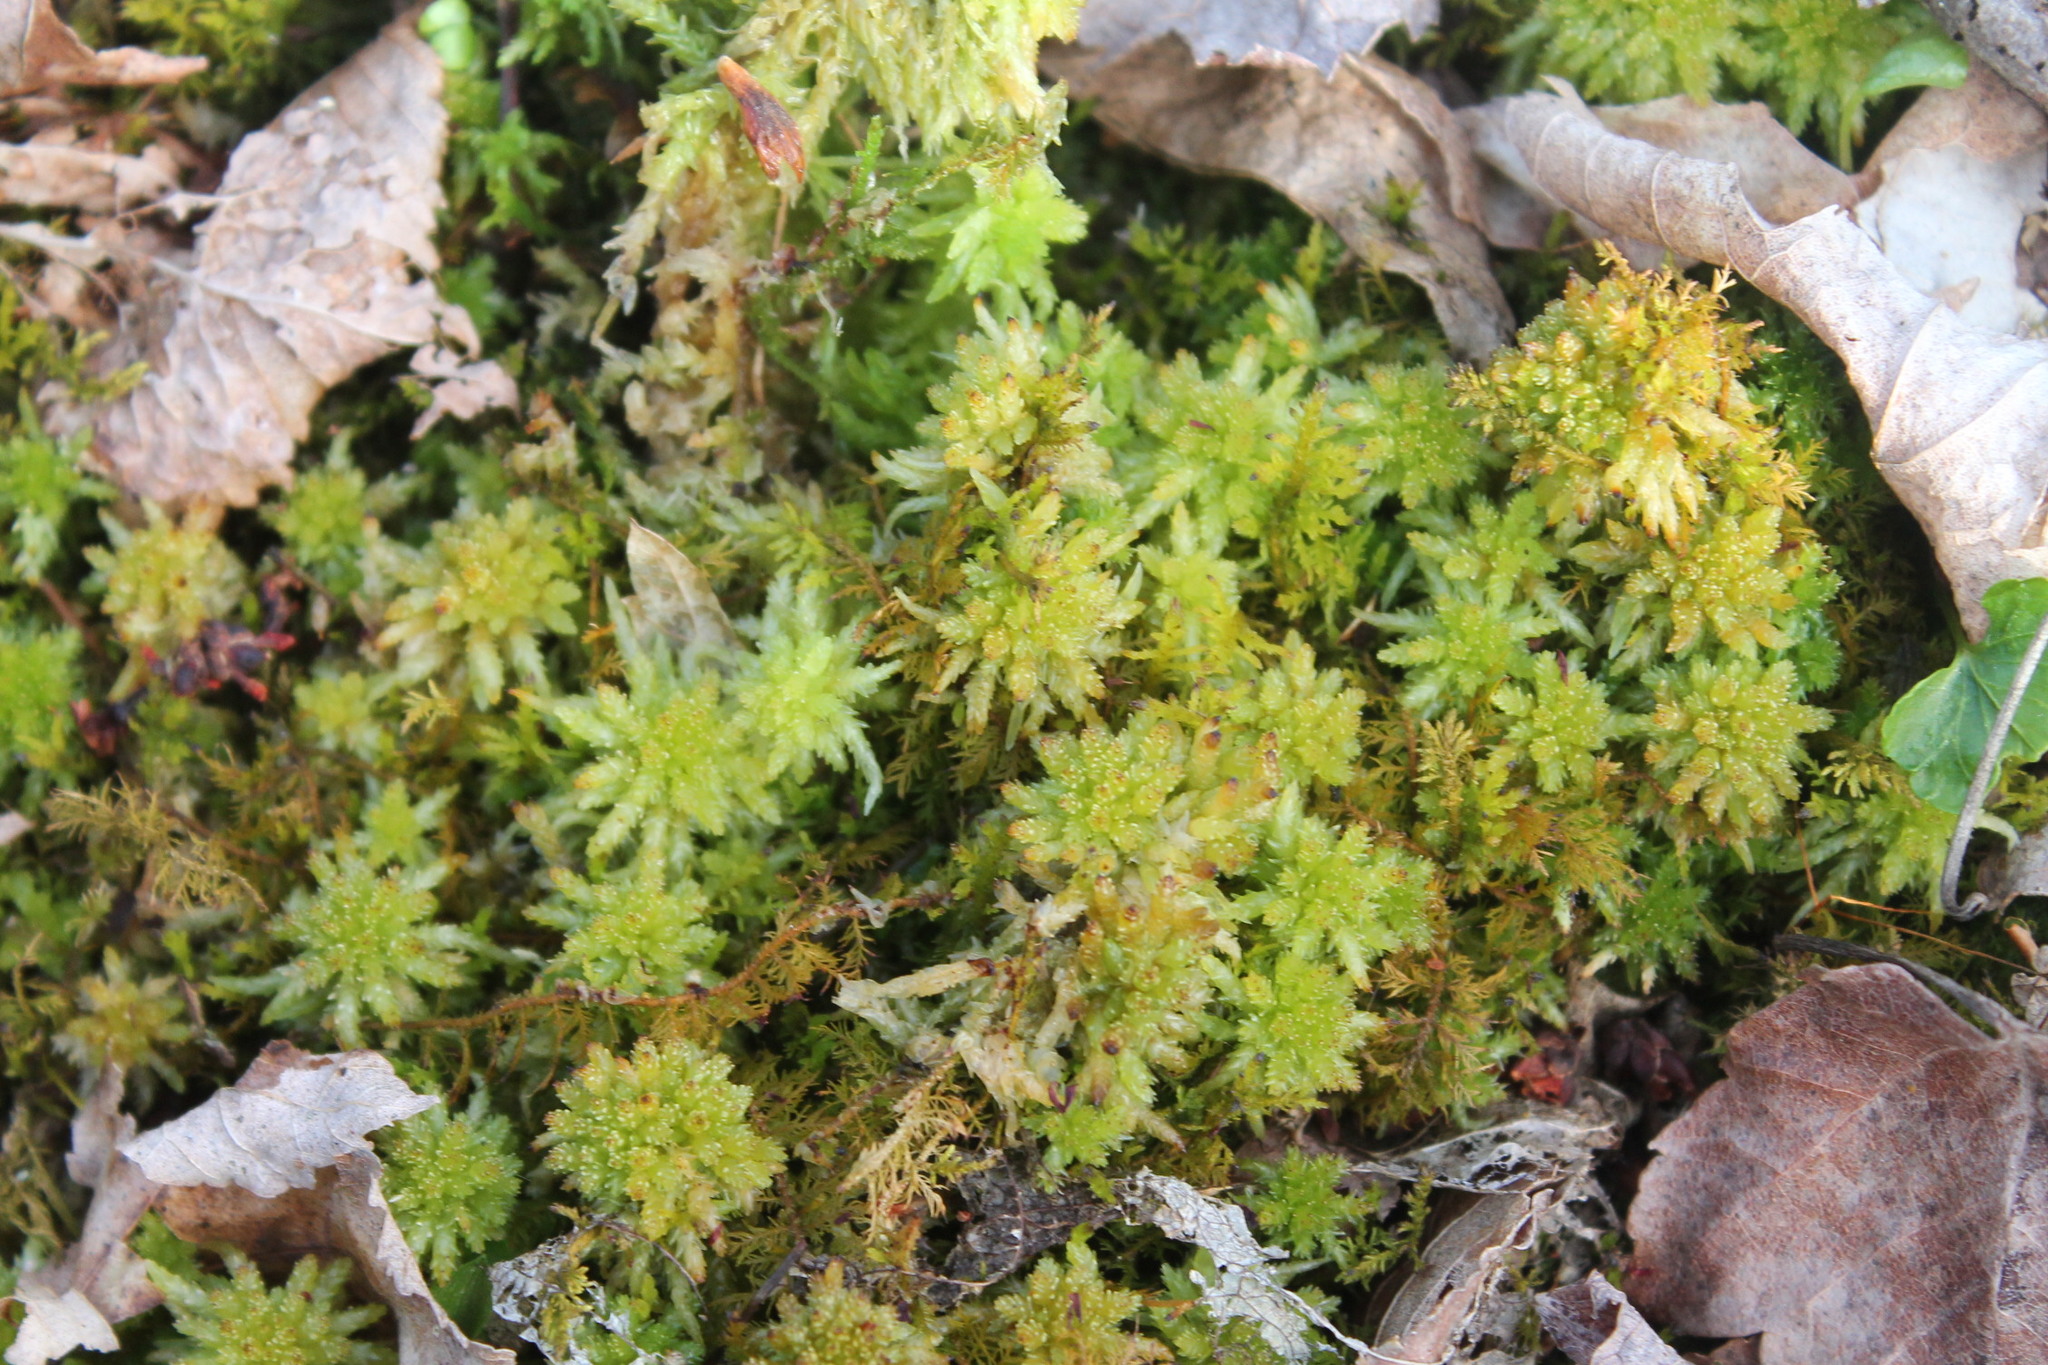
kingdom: Plantae
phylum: Bryophyta
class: Sphagnopsida
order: Sphagnales
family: Sphagnaceae
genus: Sphagnum
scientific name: Sphagnum palustre
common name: Blunt-leaved bog-moss
